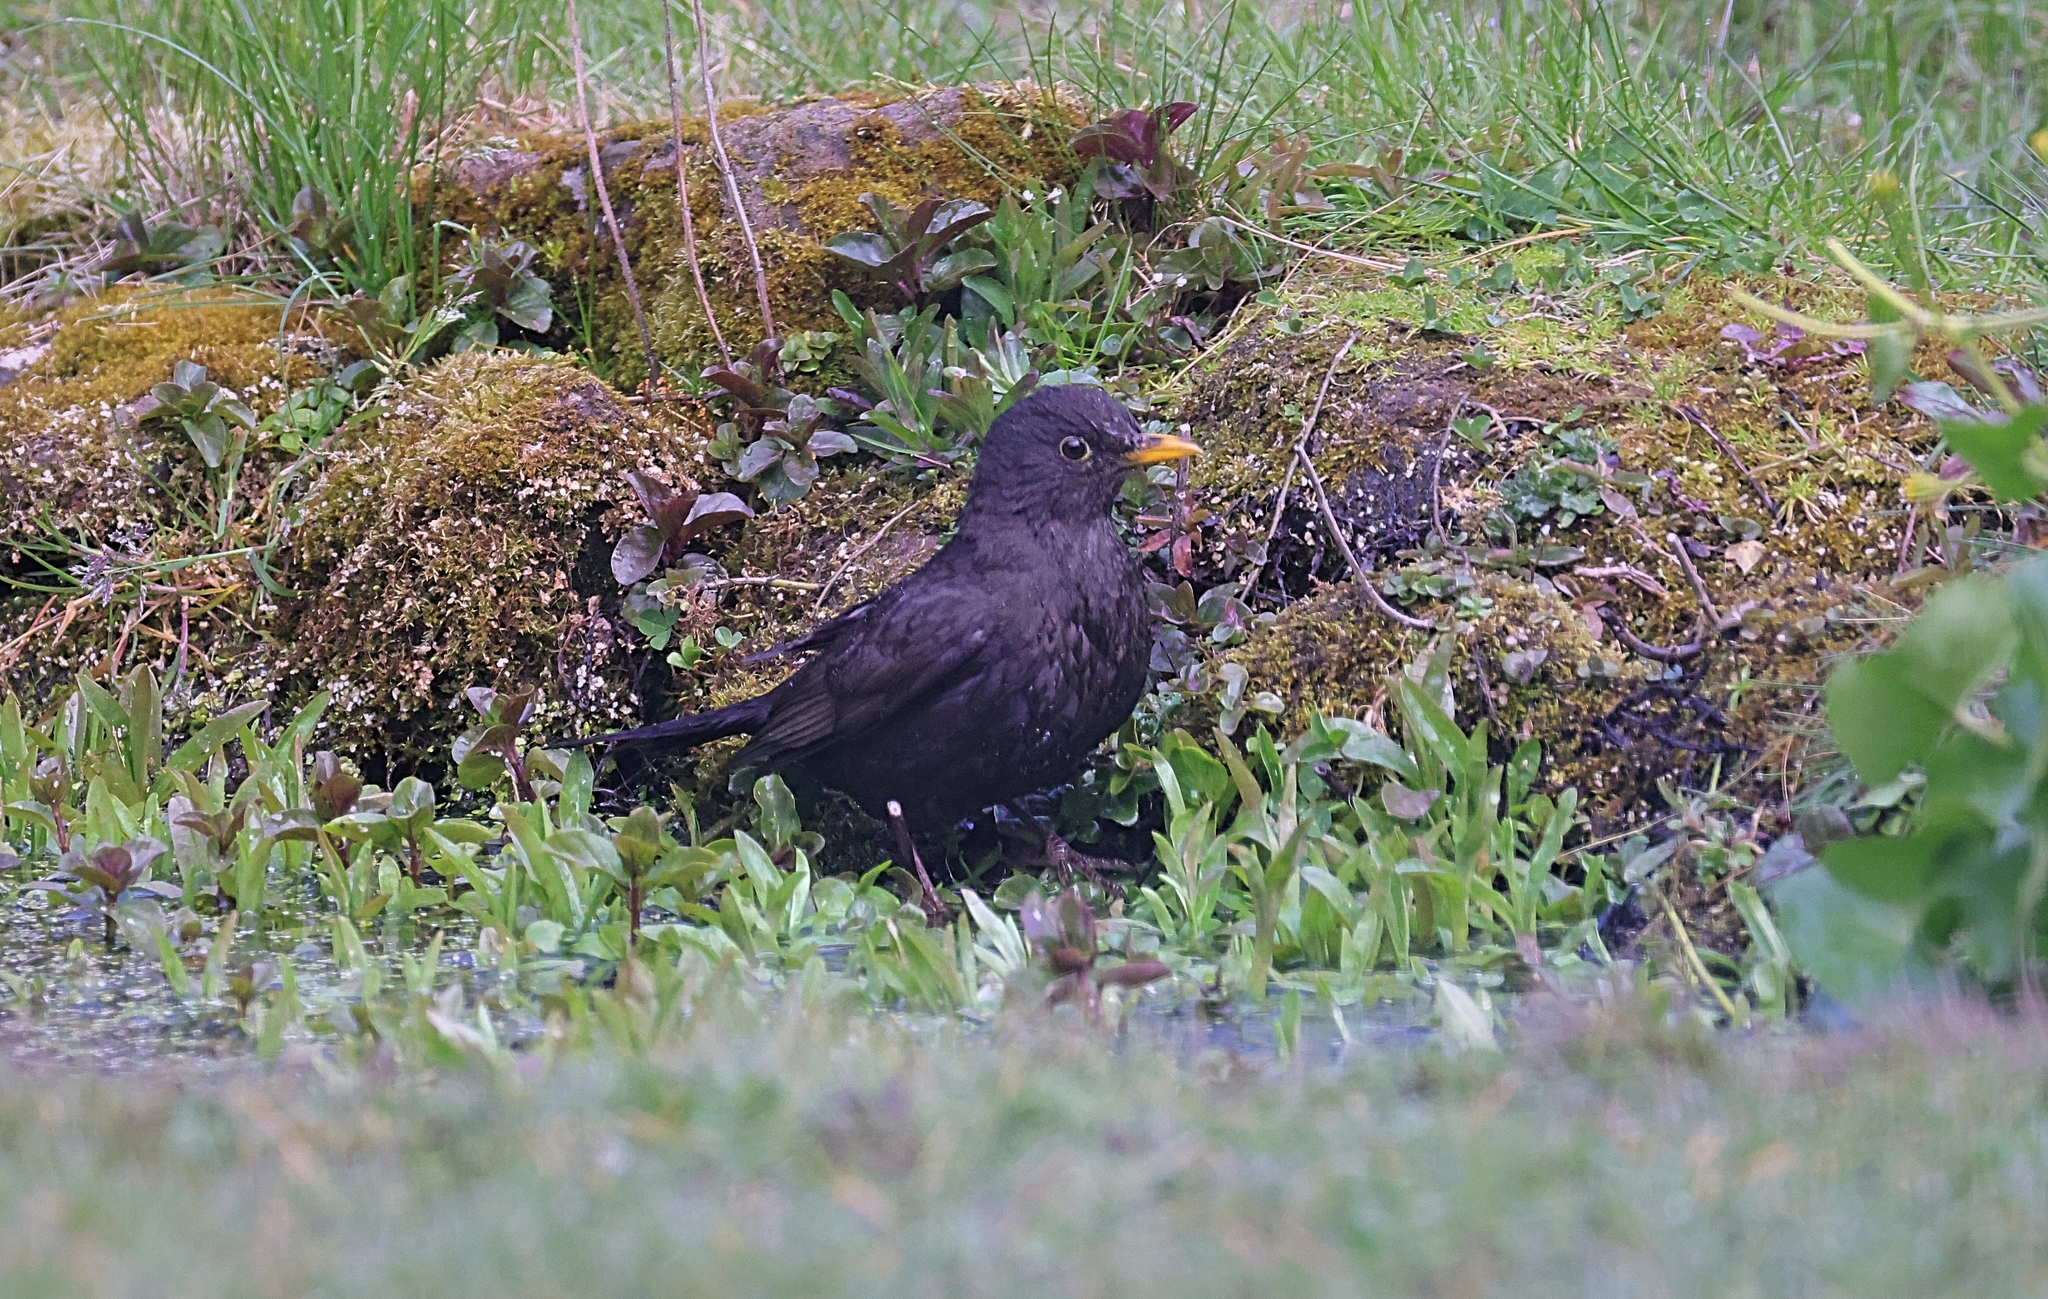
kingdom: Animalia
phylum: Chordata
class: Aves
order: Passeriformes
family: Turdidae
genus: Turdus
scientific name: Turdus merula
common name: Common blackbird
